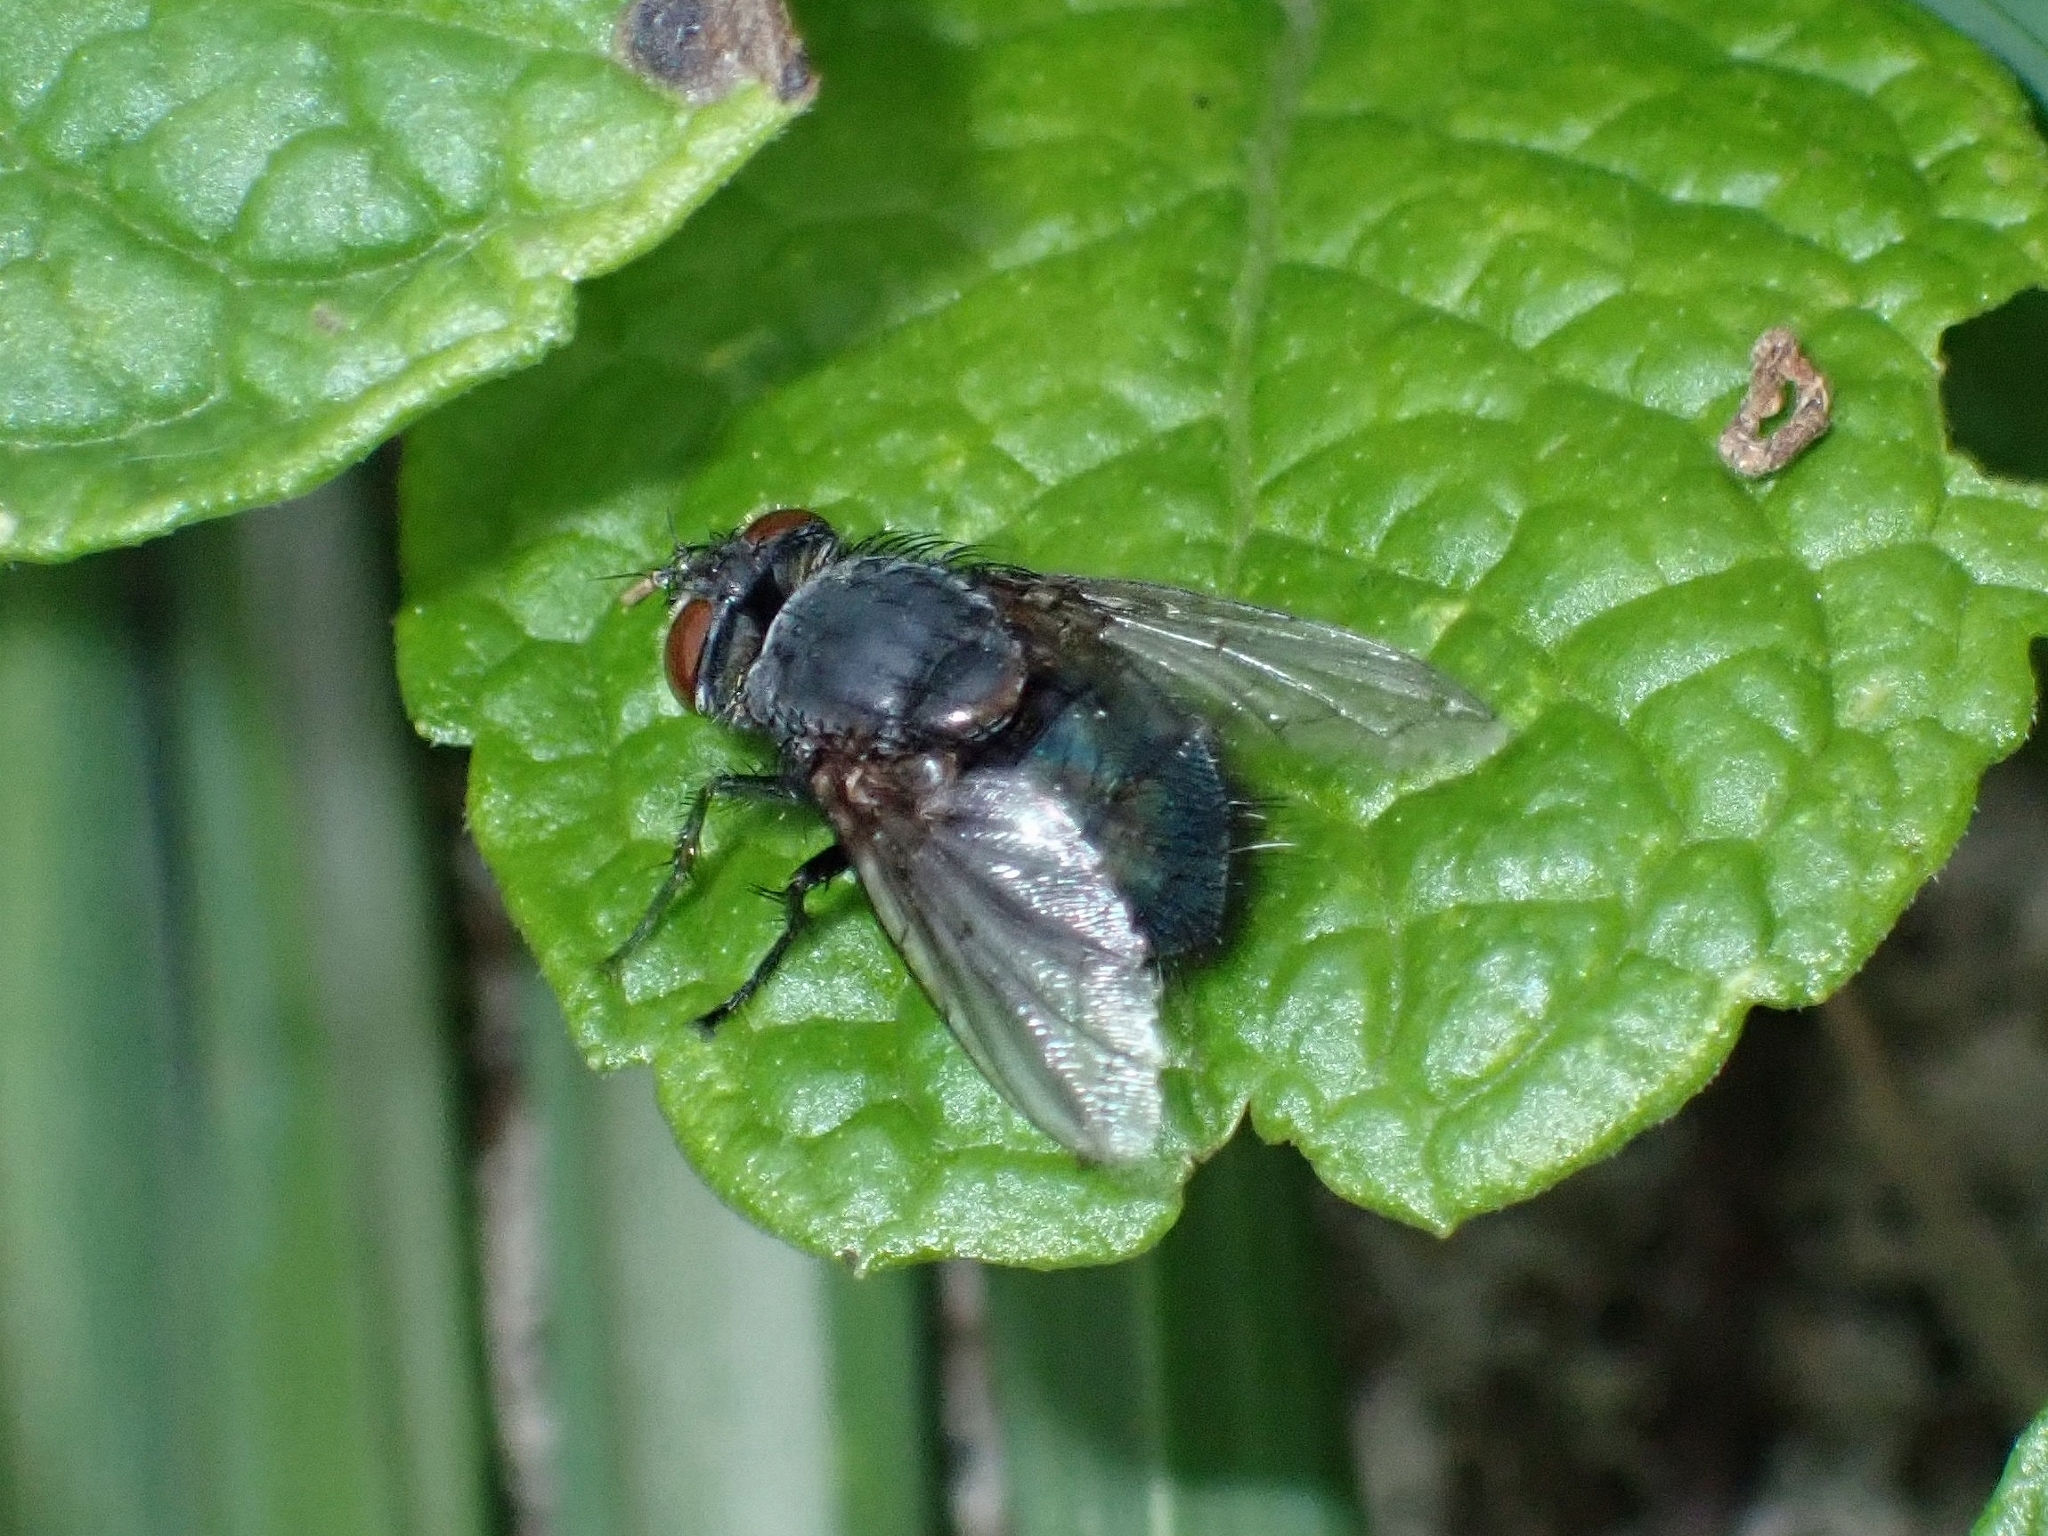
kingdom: Animalia
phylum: Arthropoda
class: Insecta
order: Diptera
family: Tachinidae
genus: Pales
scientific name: Pales cyanea
